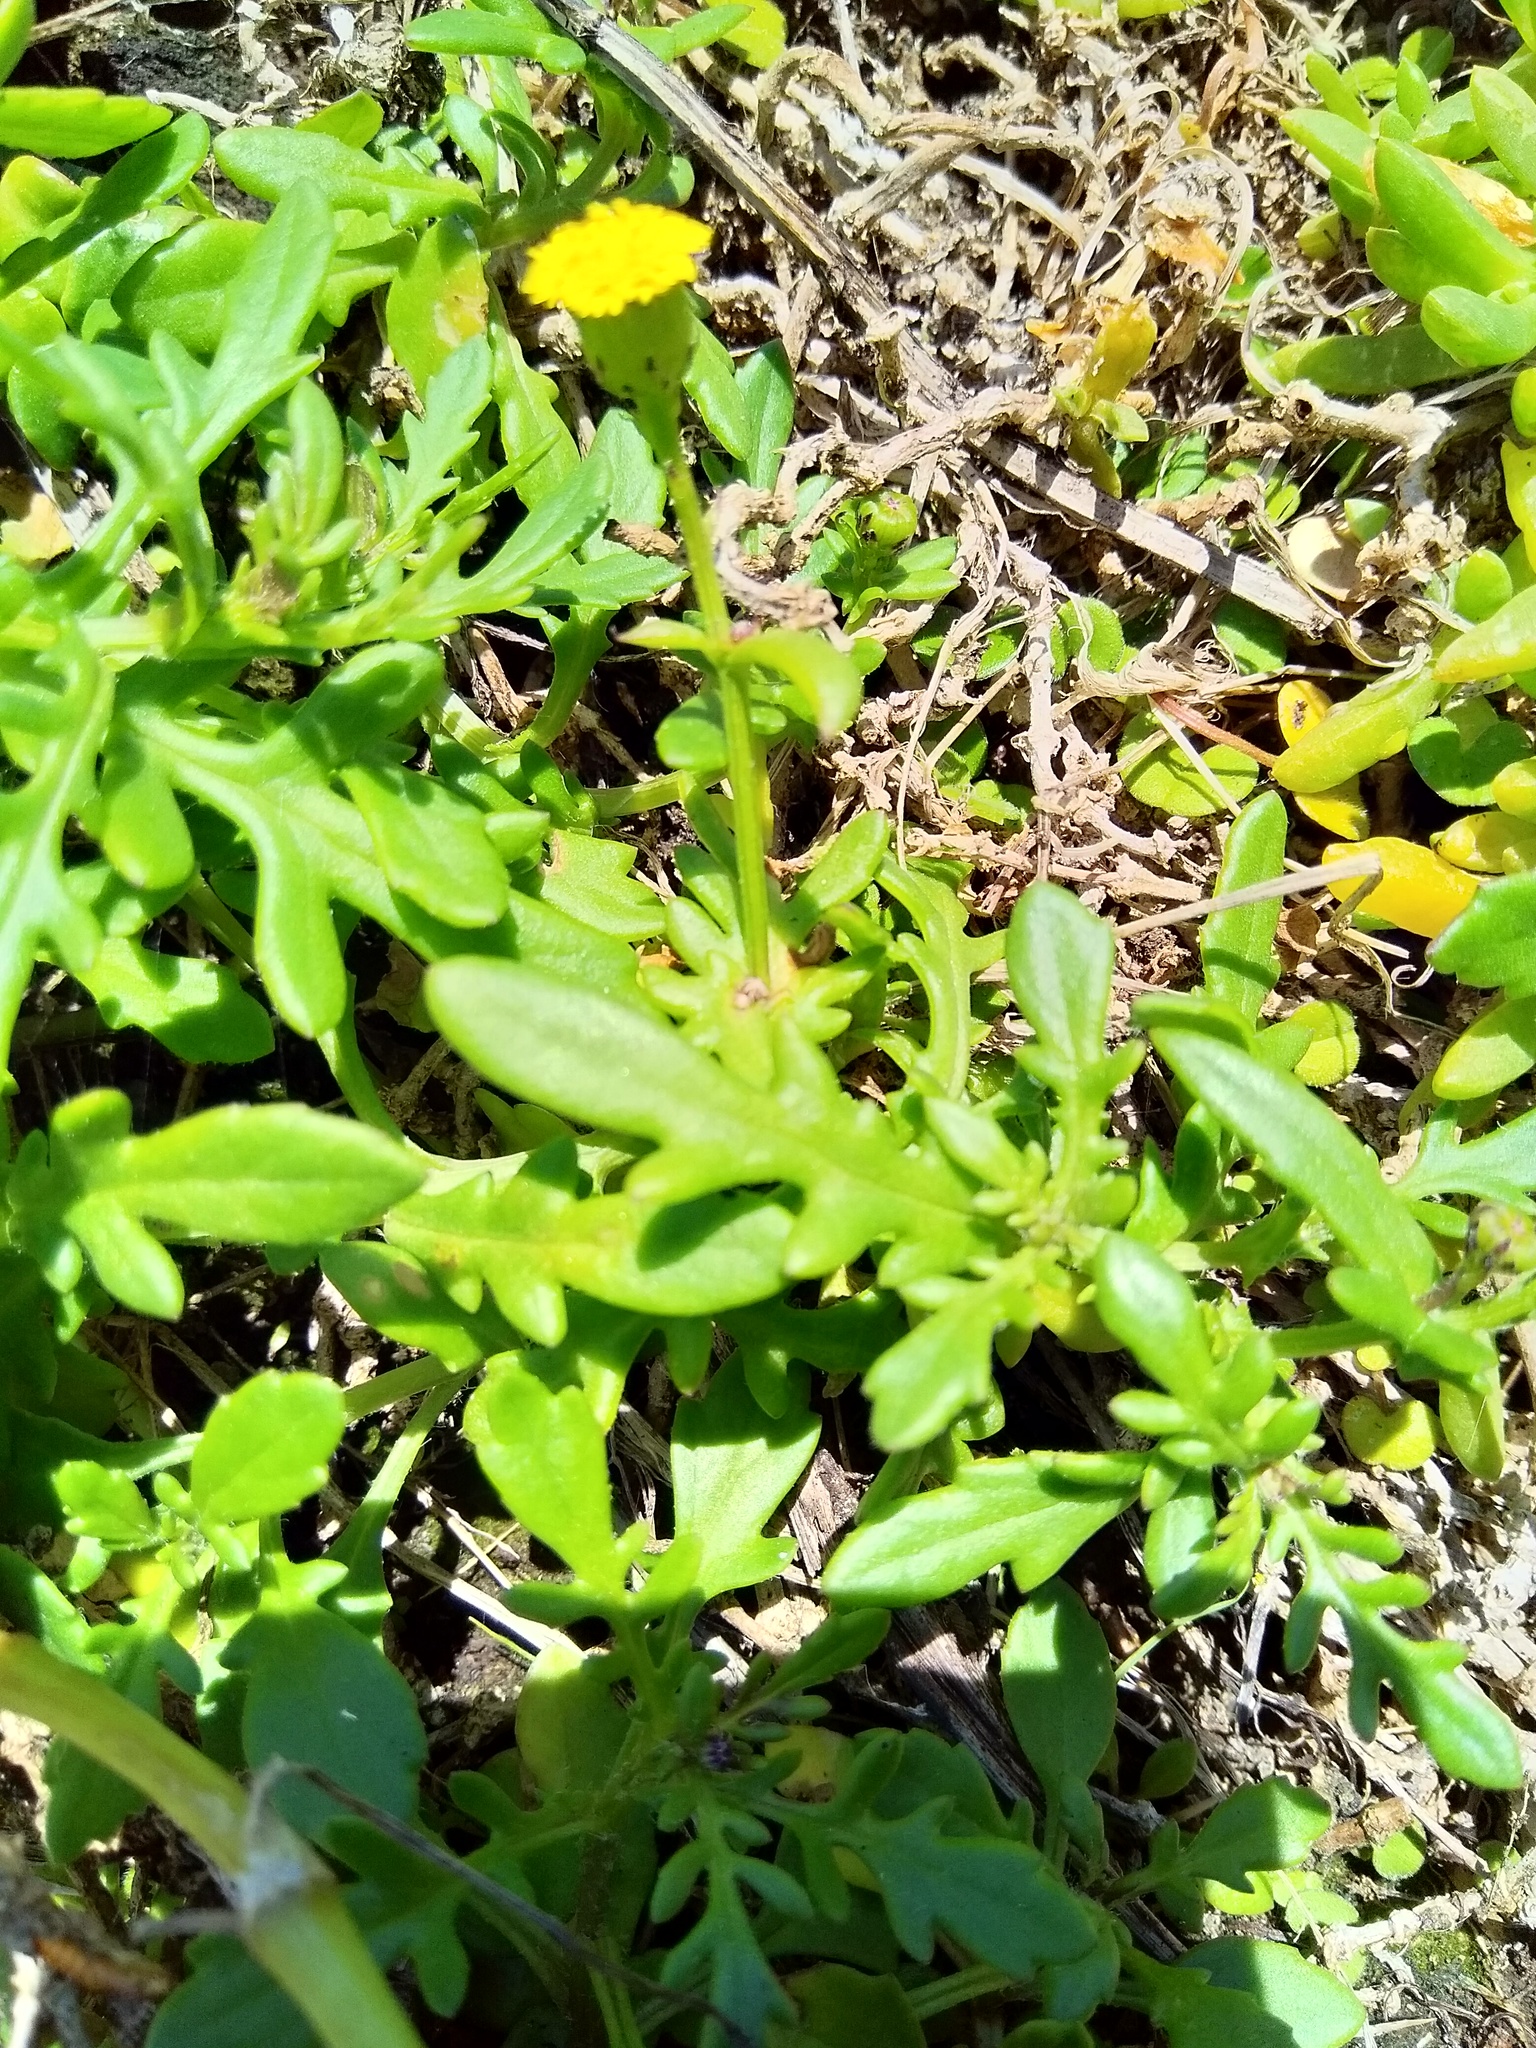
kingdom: Plantae
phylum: Tracheophyta
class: Magnoliopsida
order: Asterales
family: Asteraceae
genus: Senecio
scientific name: Senecio lautus
